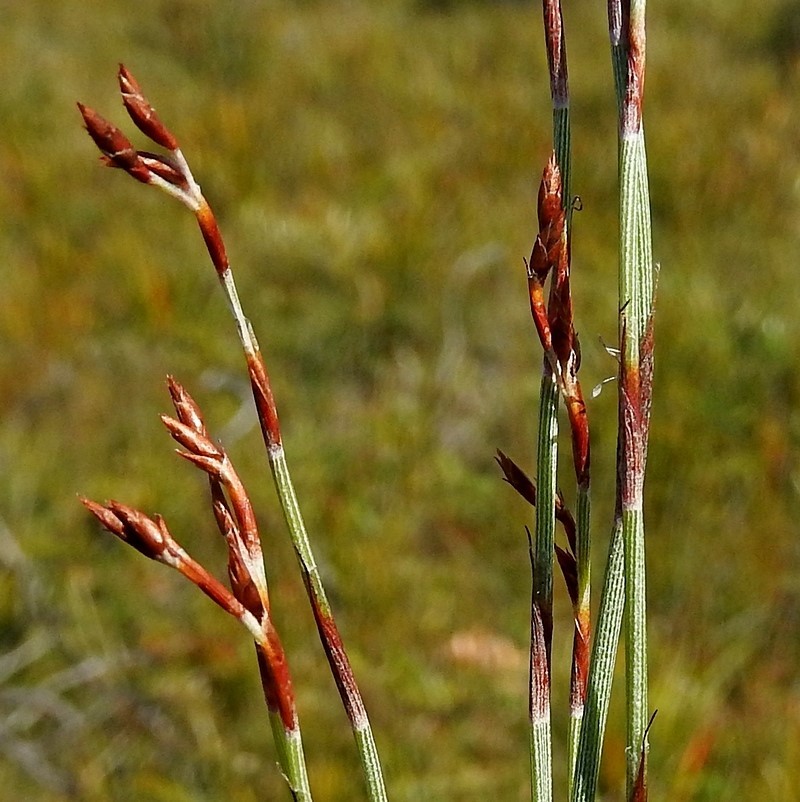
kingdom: Plantae
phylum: Tracheophyta
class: Liliopsida
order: Poales
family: Restionaceae
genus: Hypolaena
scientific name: Hypolaena fastigiata
